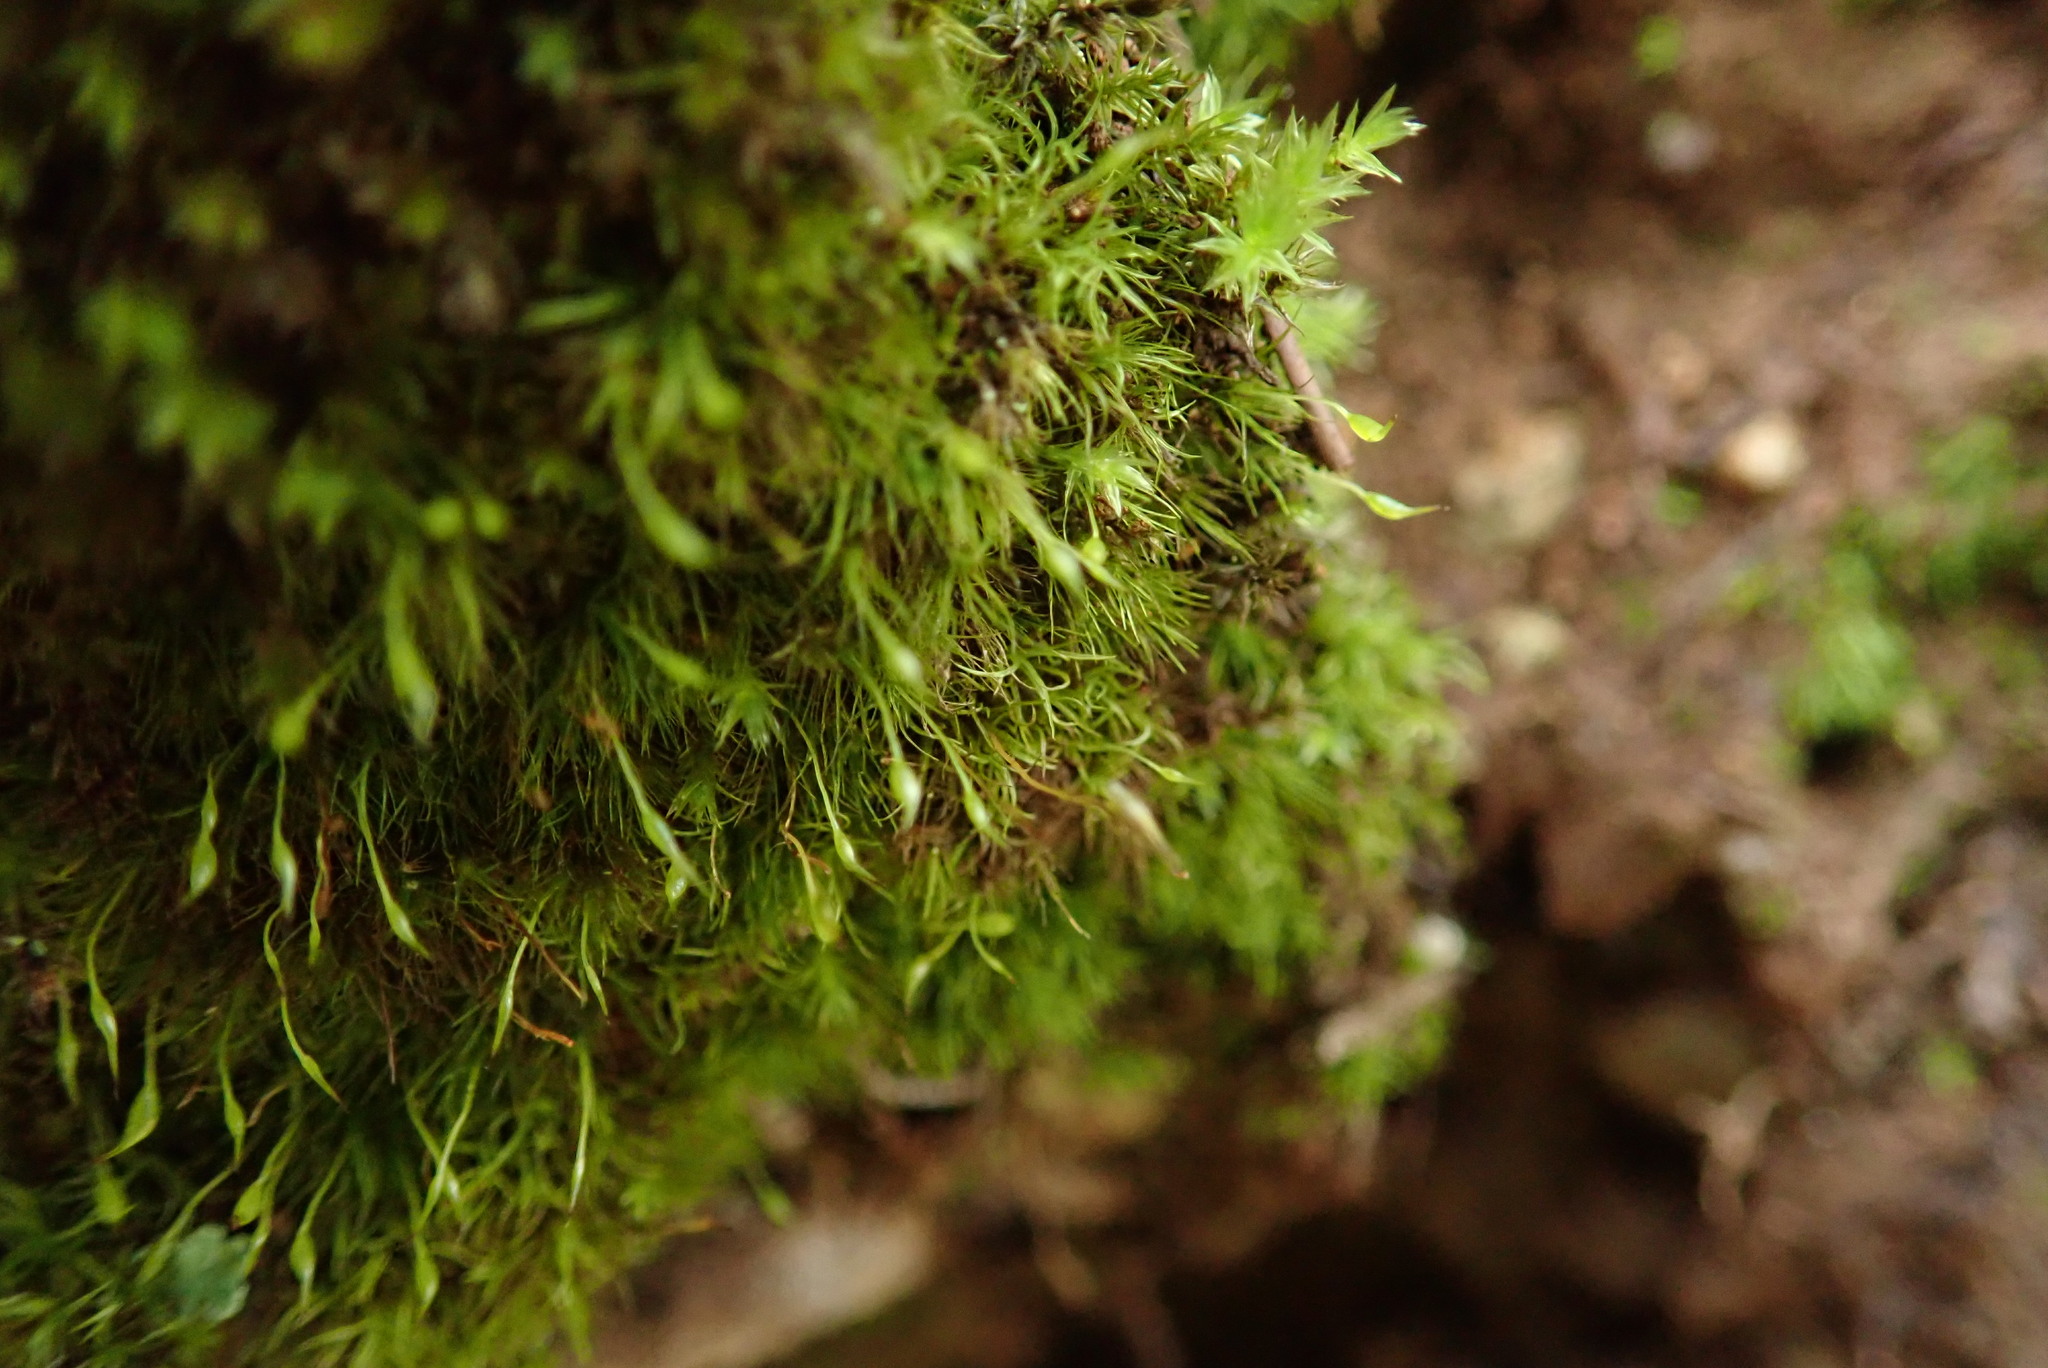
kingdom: Plantae
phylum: Bryophyta
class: Bryopsida
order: Dicranales
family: Dicranellaceae
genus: Dicranella
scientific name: Dicranella heteromalla
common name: Silky forklet moss
